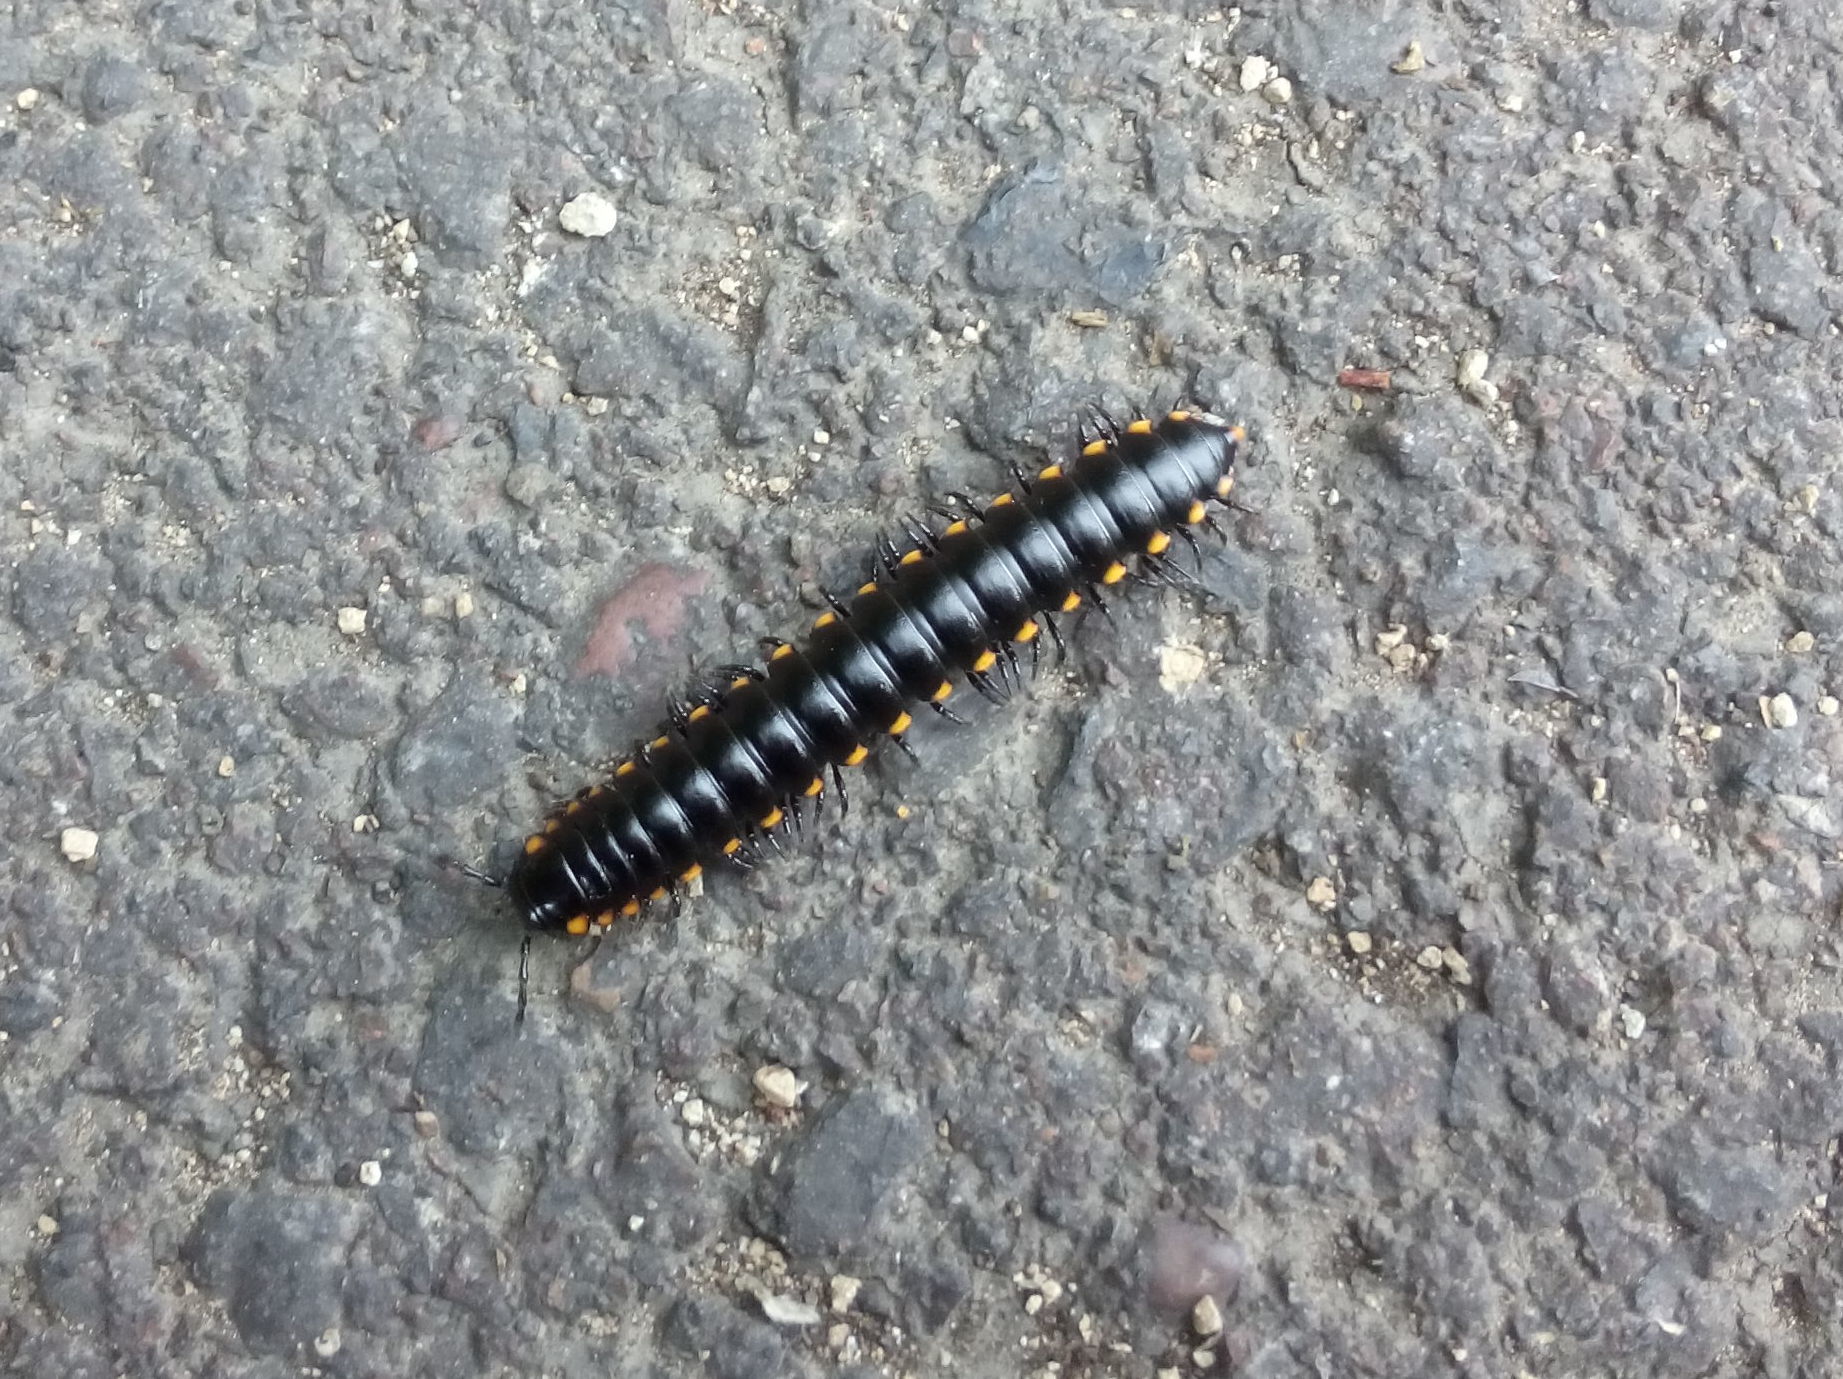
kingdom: Animalia
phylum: Arthropoda
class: Diplopoda
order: Polydesmida
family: Xystodesmidae
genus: Harpaphe
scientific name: Harpaphe haydeniana
